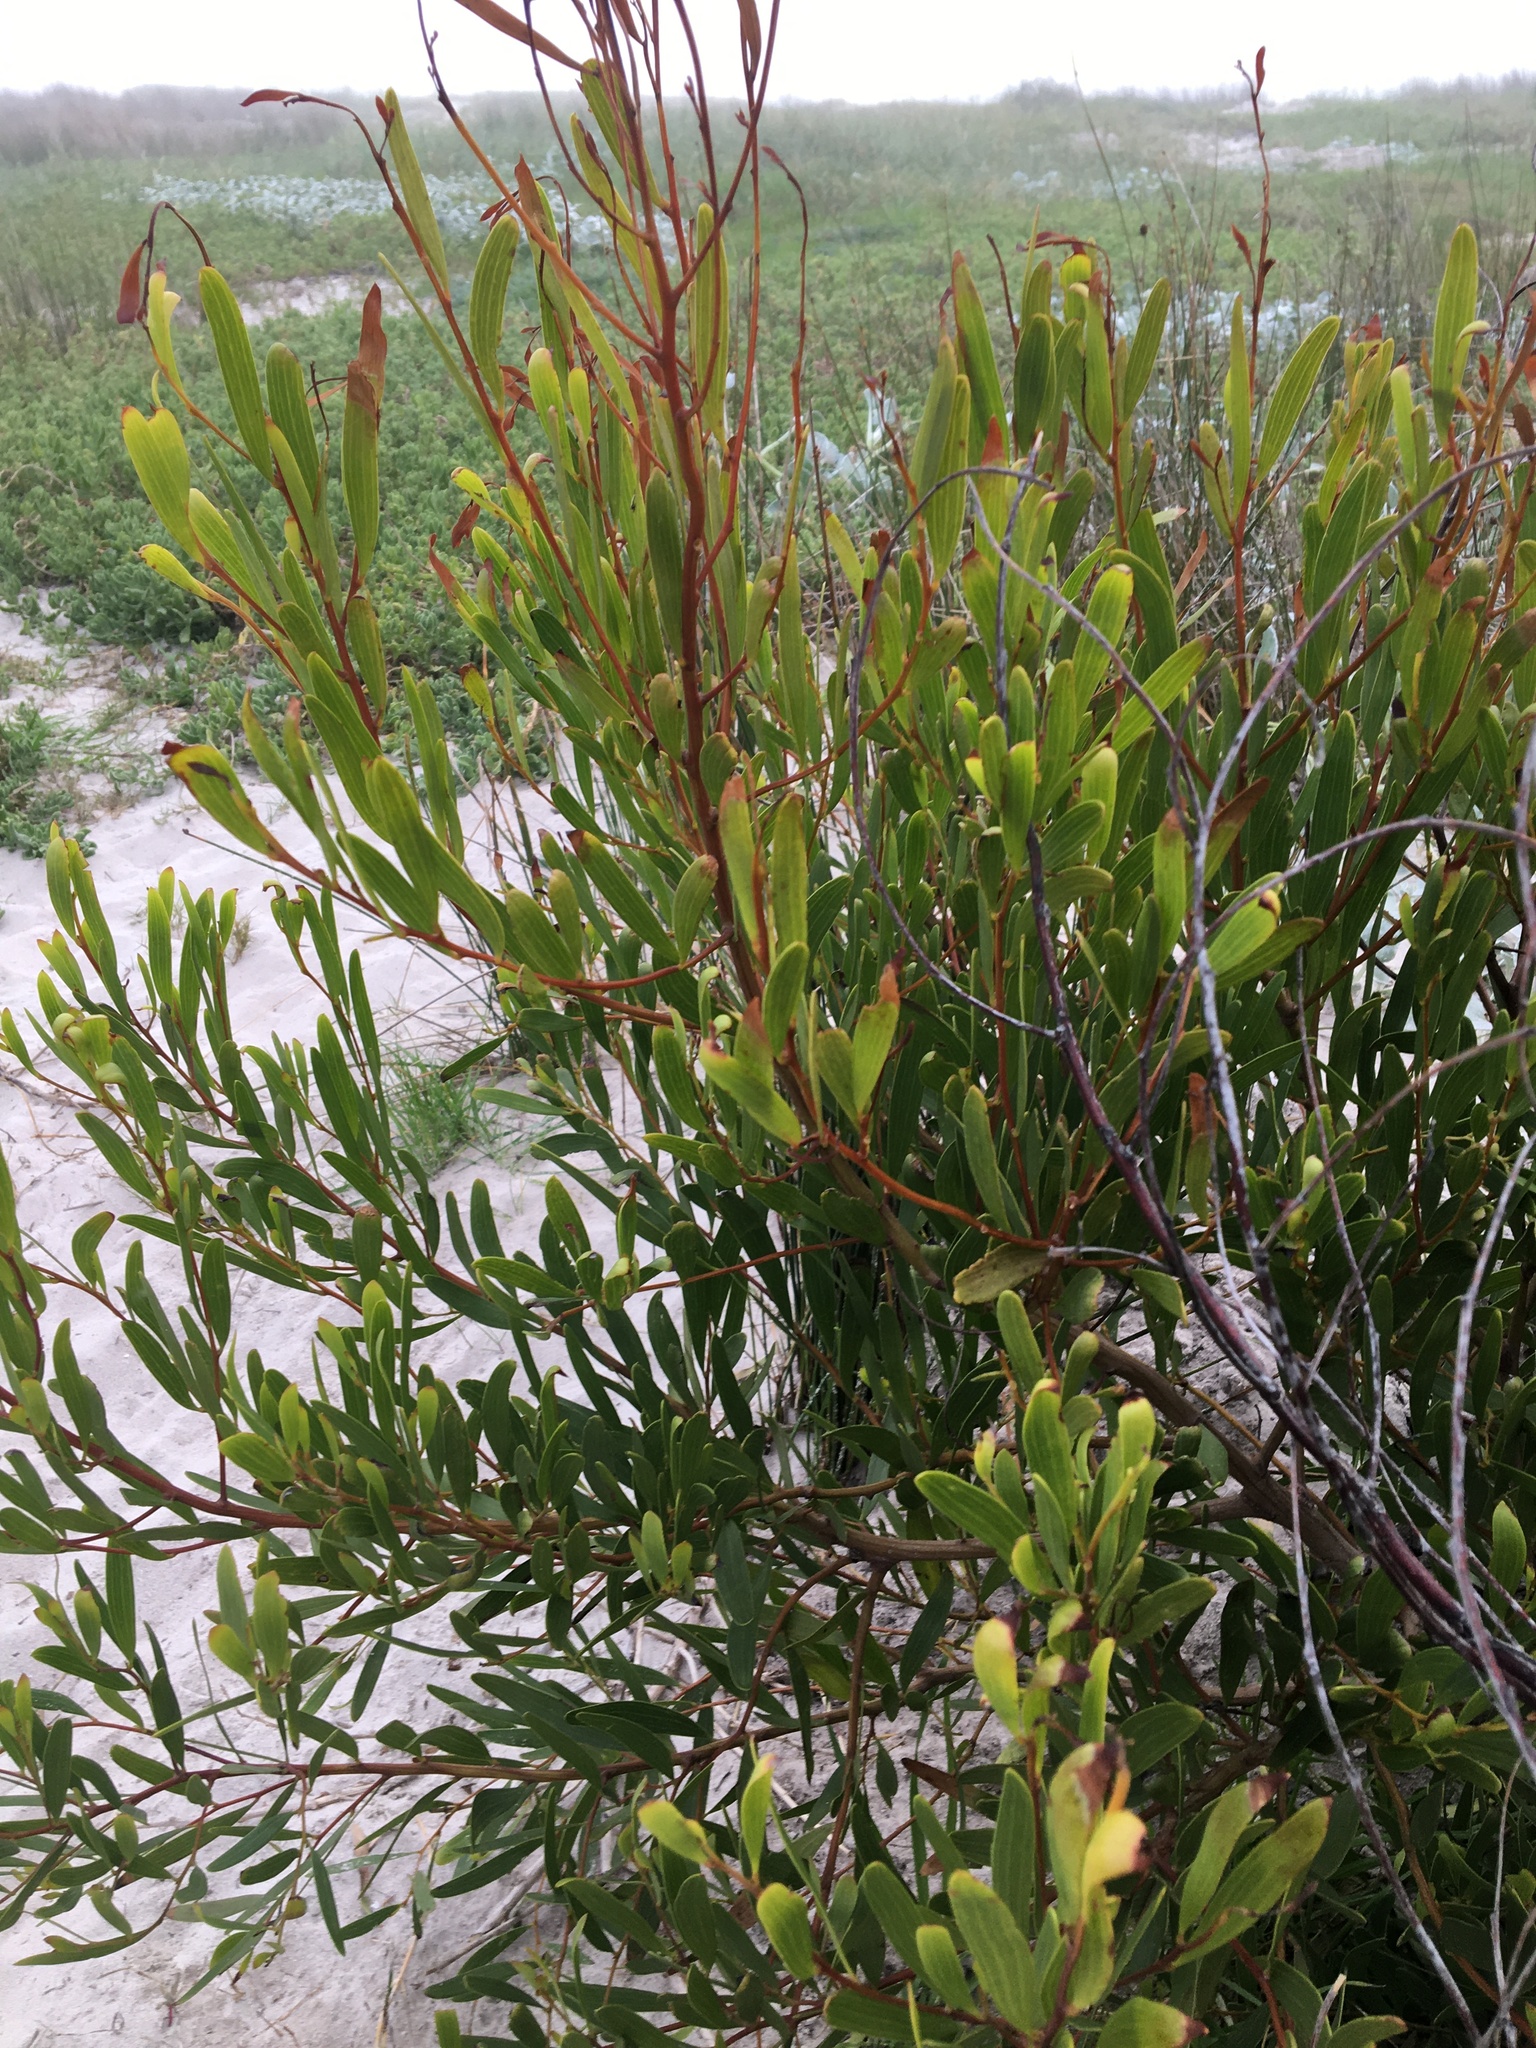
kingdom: Plantae
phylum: Tracheophyta
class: Magnoliopsida
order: Fabales
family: Fabaceae
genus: Acacia
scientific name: Acacia cyclops
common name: Coastal wattle
